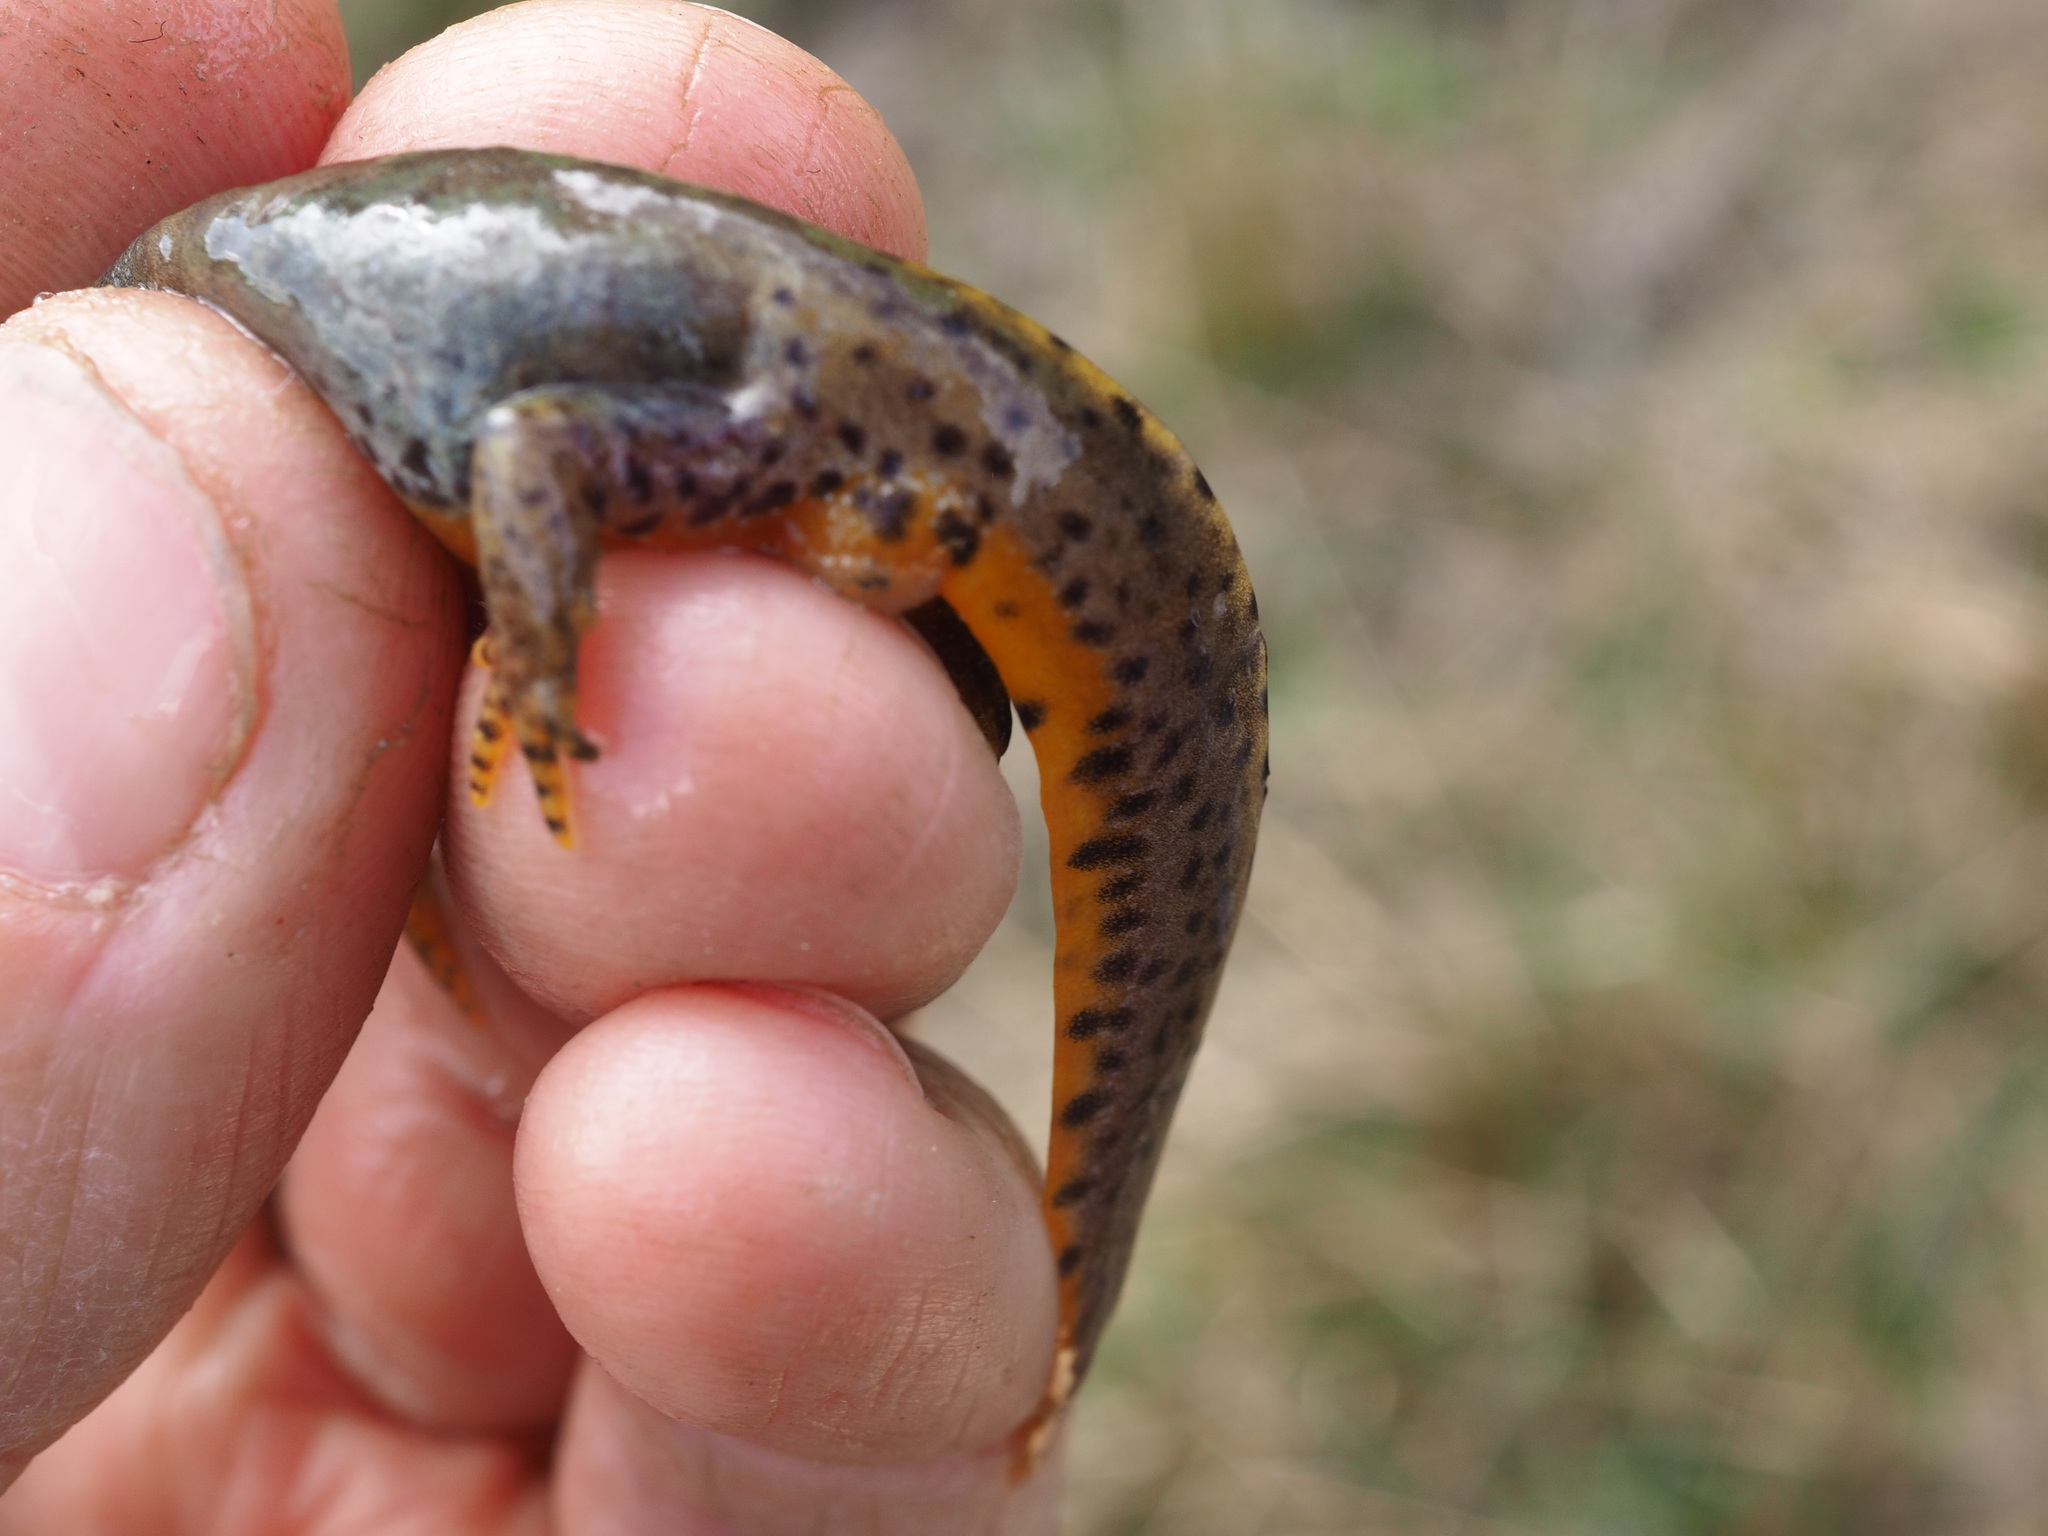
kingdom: Animalia
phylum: Chordata
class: Amphibia
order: Caudata
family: Salamandridae
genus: Ichthyosaura
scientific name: Ichthyosaura alpestris
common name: Alpine newt
